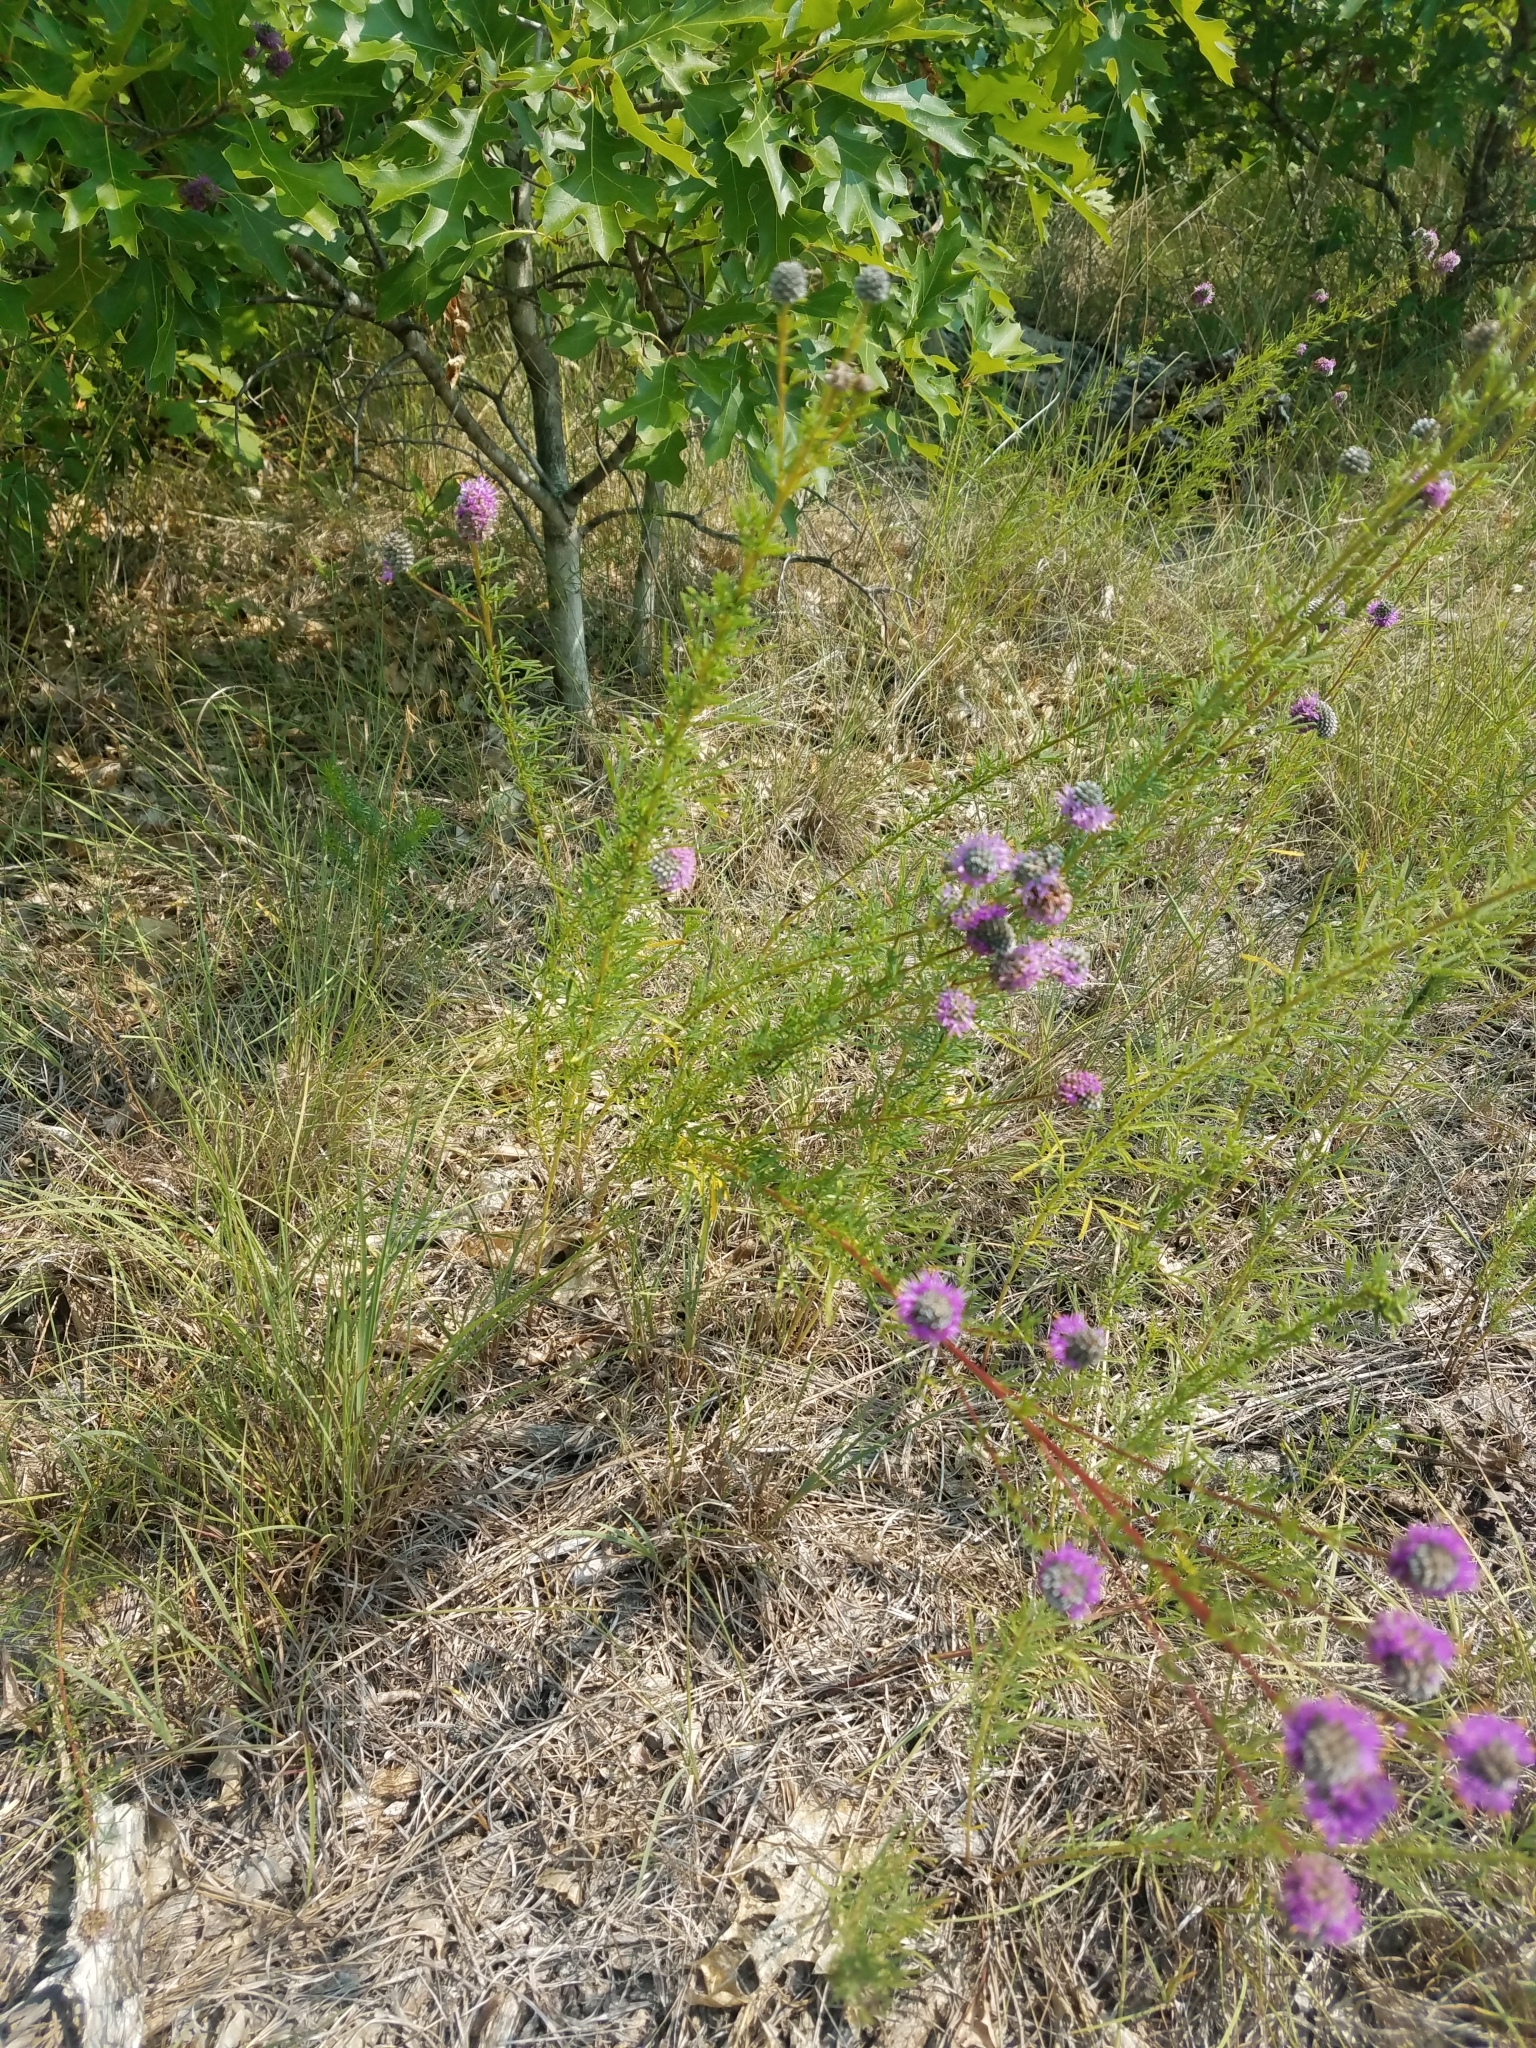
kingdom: Plantae
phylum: Tracheophyta
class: Magnoliopsida
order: Fabales
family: Fabaceae
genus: Dalea
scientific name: Dalea purpurea
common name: Purple prairie-clover
